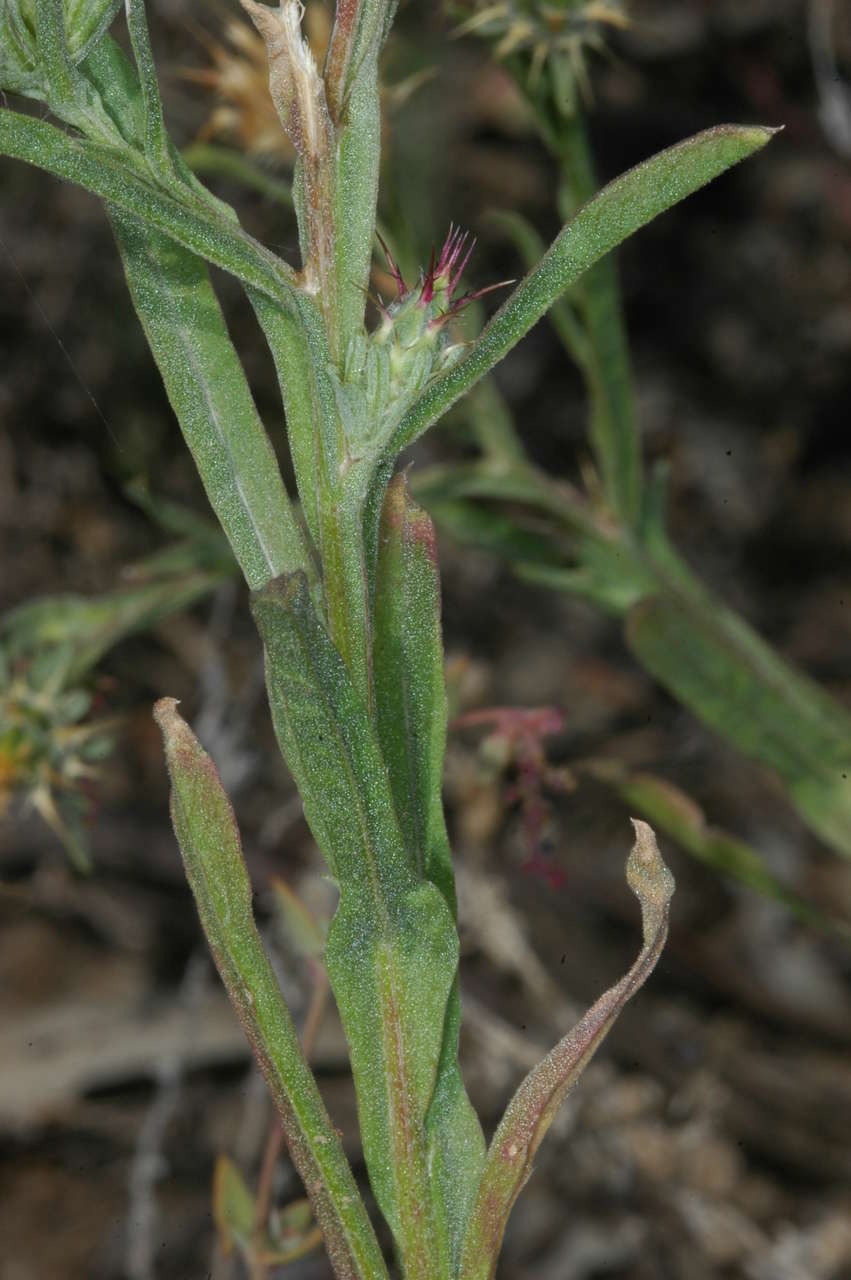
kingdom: Plantae
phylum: Tracheophyta
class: Magnoliopsida
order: Asterales
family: Asteraceae
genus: Centaurea
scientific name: Centaurea melitensis
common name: Maltese star-thistle
